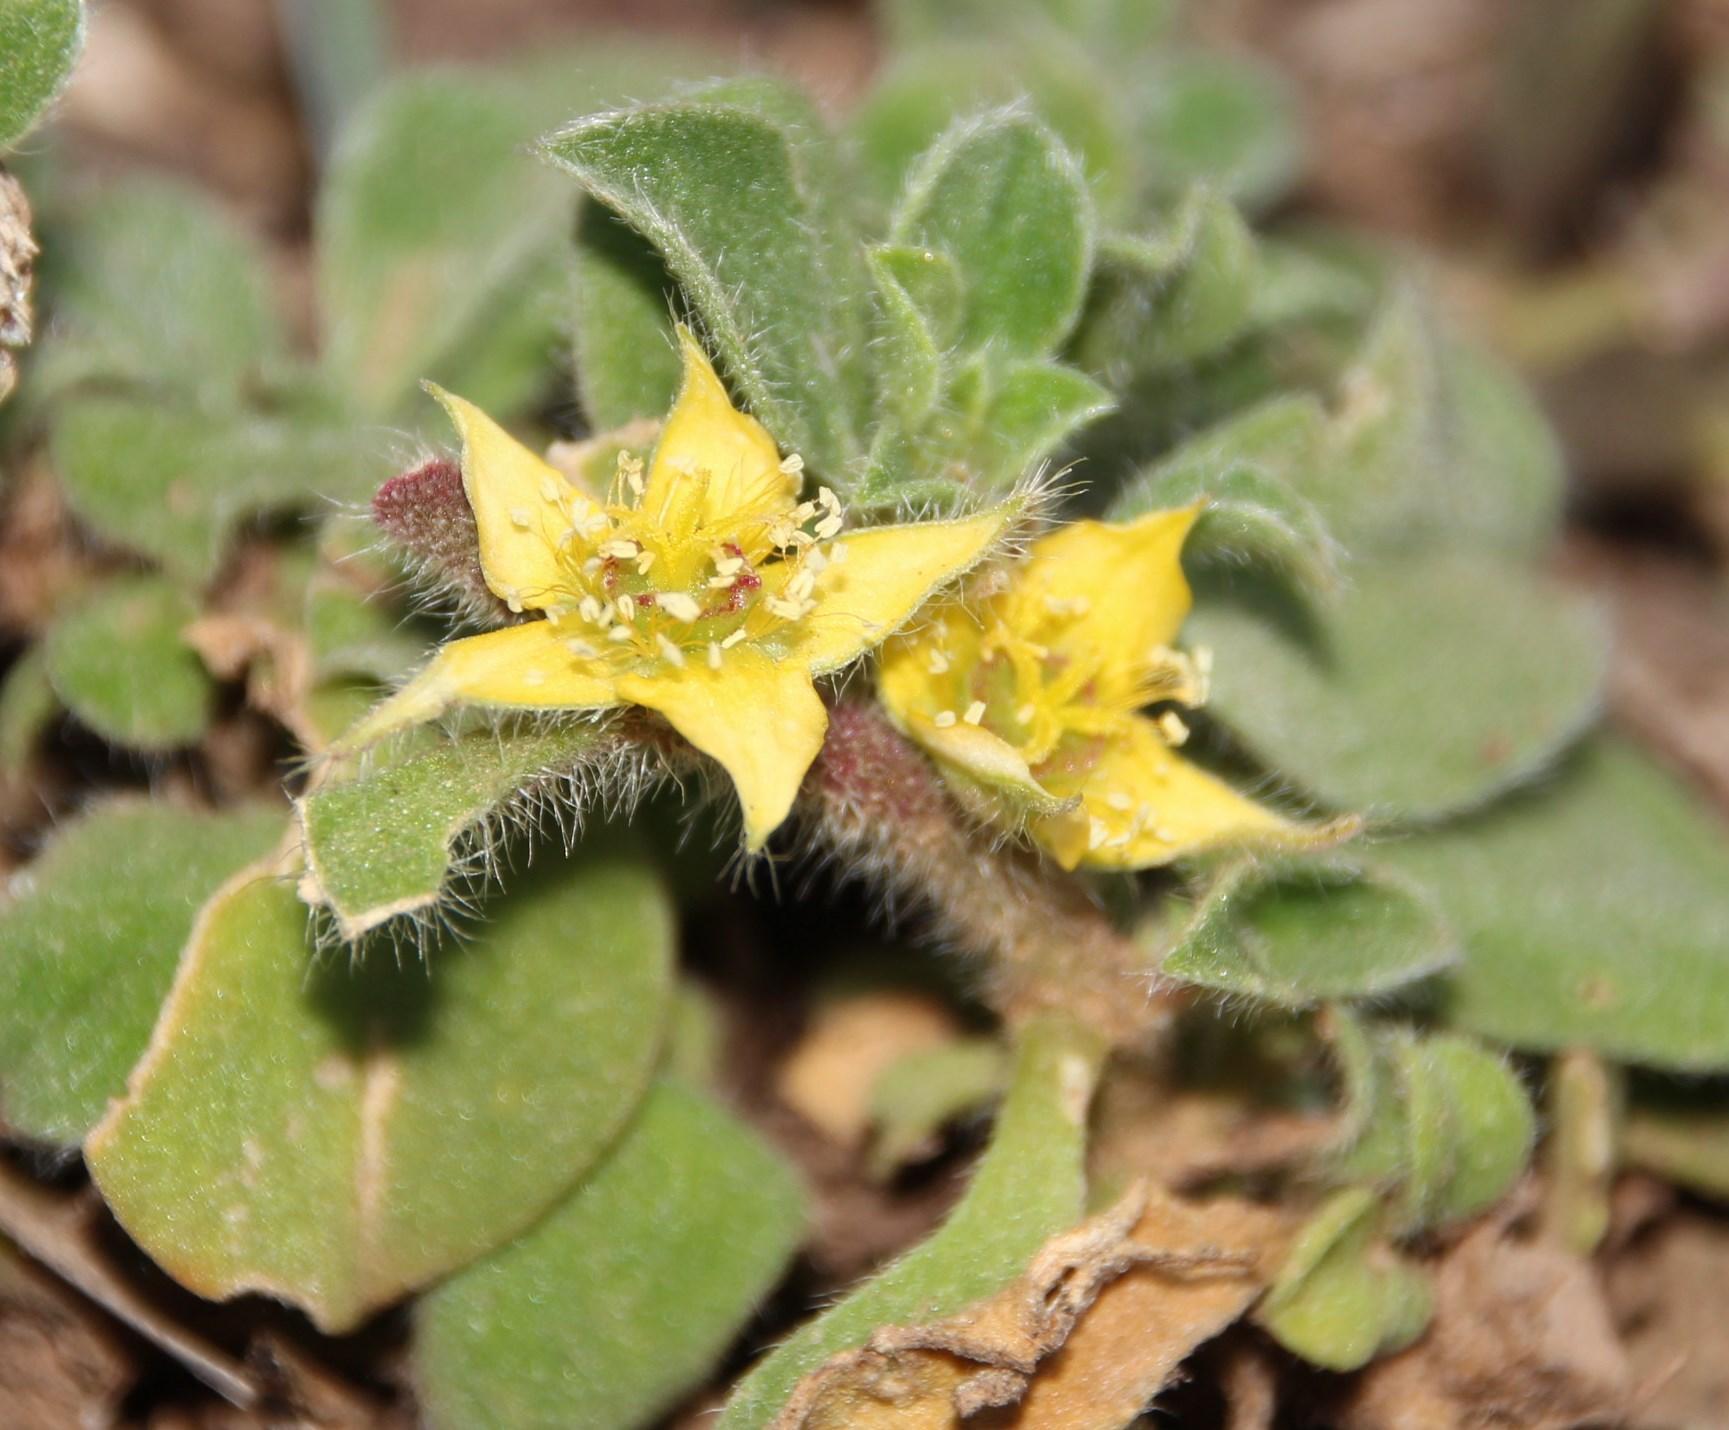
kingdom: Plantae
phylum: Tracheophyta
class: Magnoliopsida
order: Caryophyllales
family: Aizoaceae
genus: Aizoon
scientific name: Aizoon glinoides
